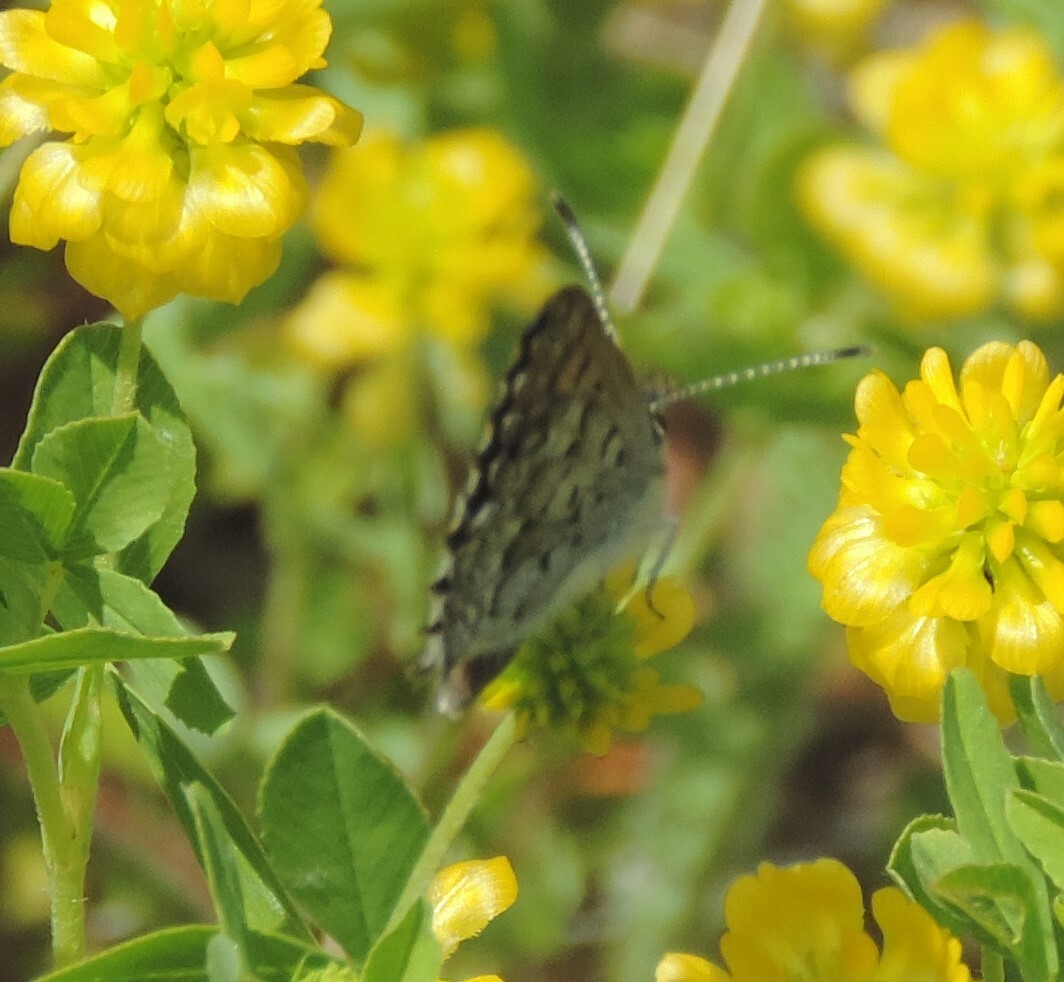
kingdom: Animalia
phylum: Arthropoda
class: Insecta
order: Lepidoptera
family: Lycaenidae
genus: Tharsalea
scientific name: Tharsalea mariposa
